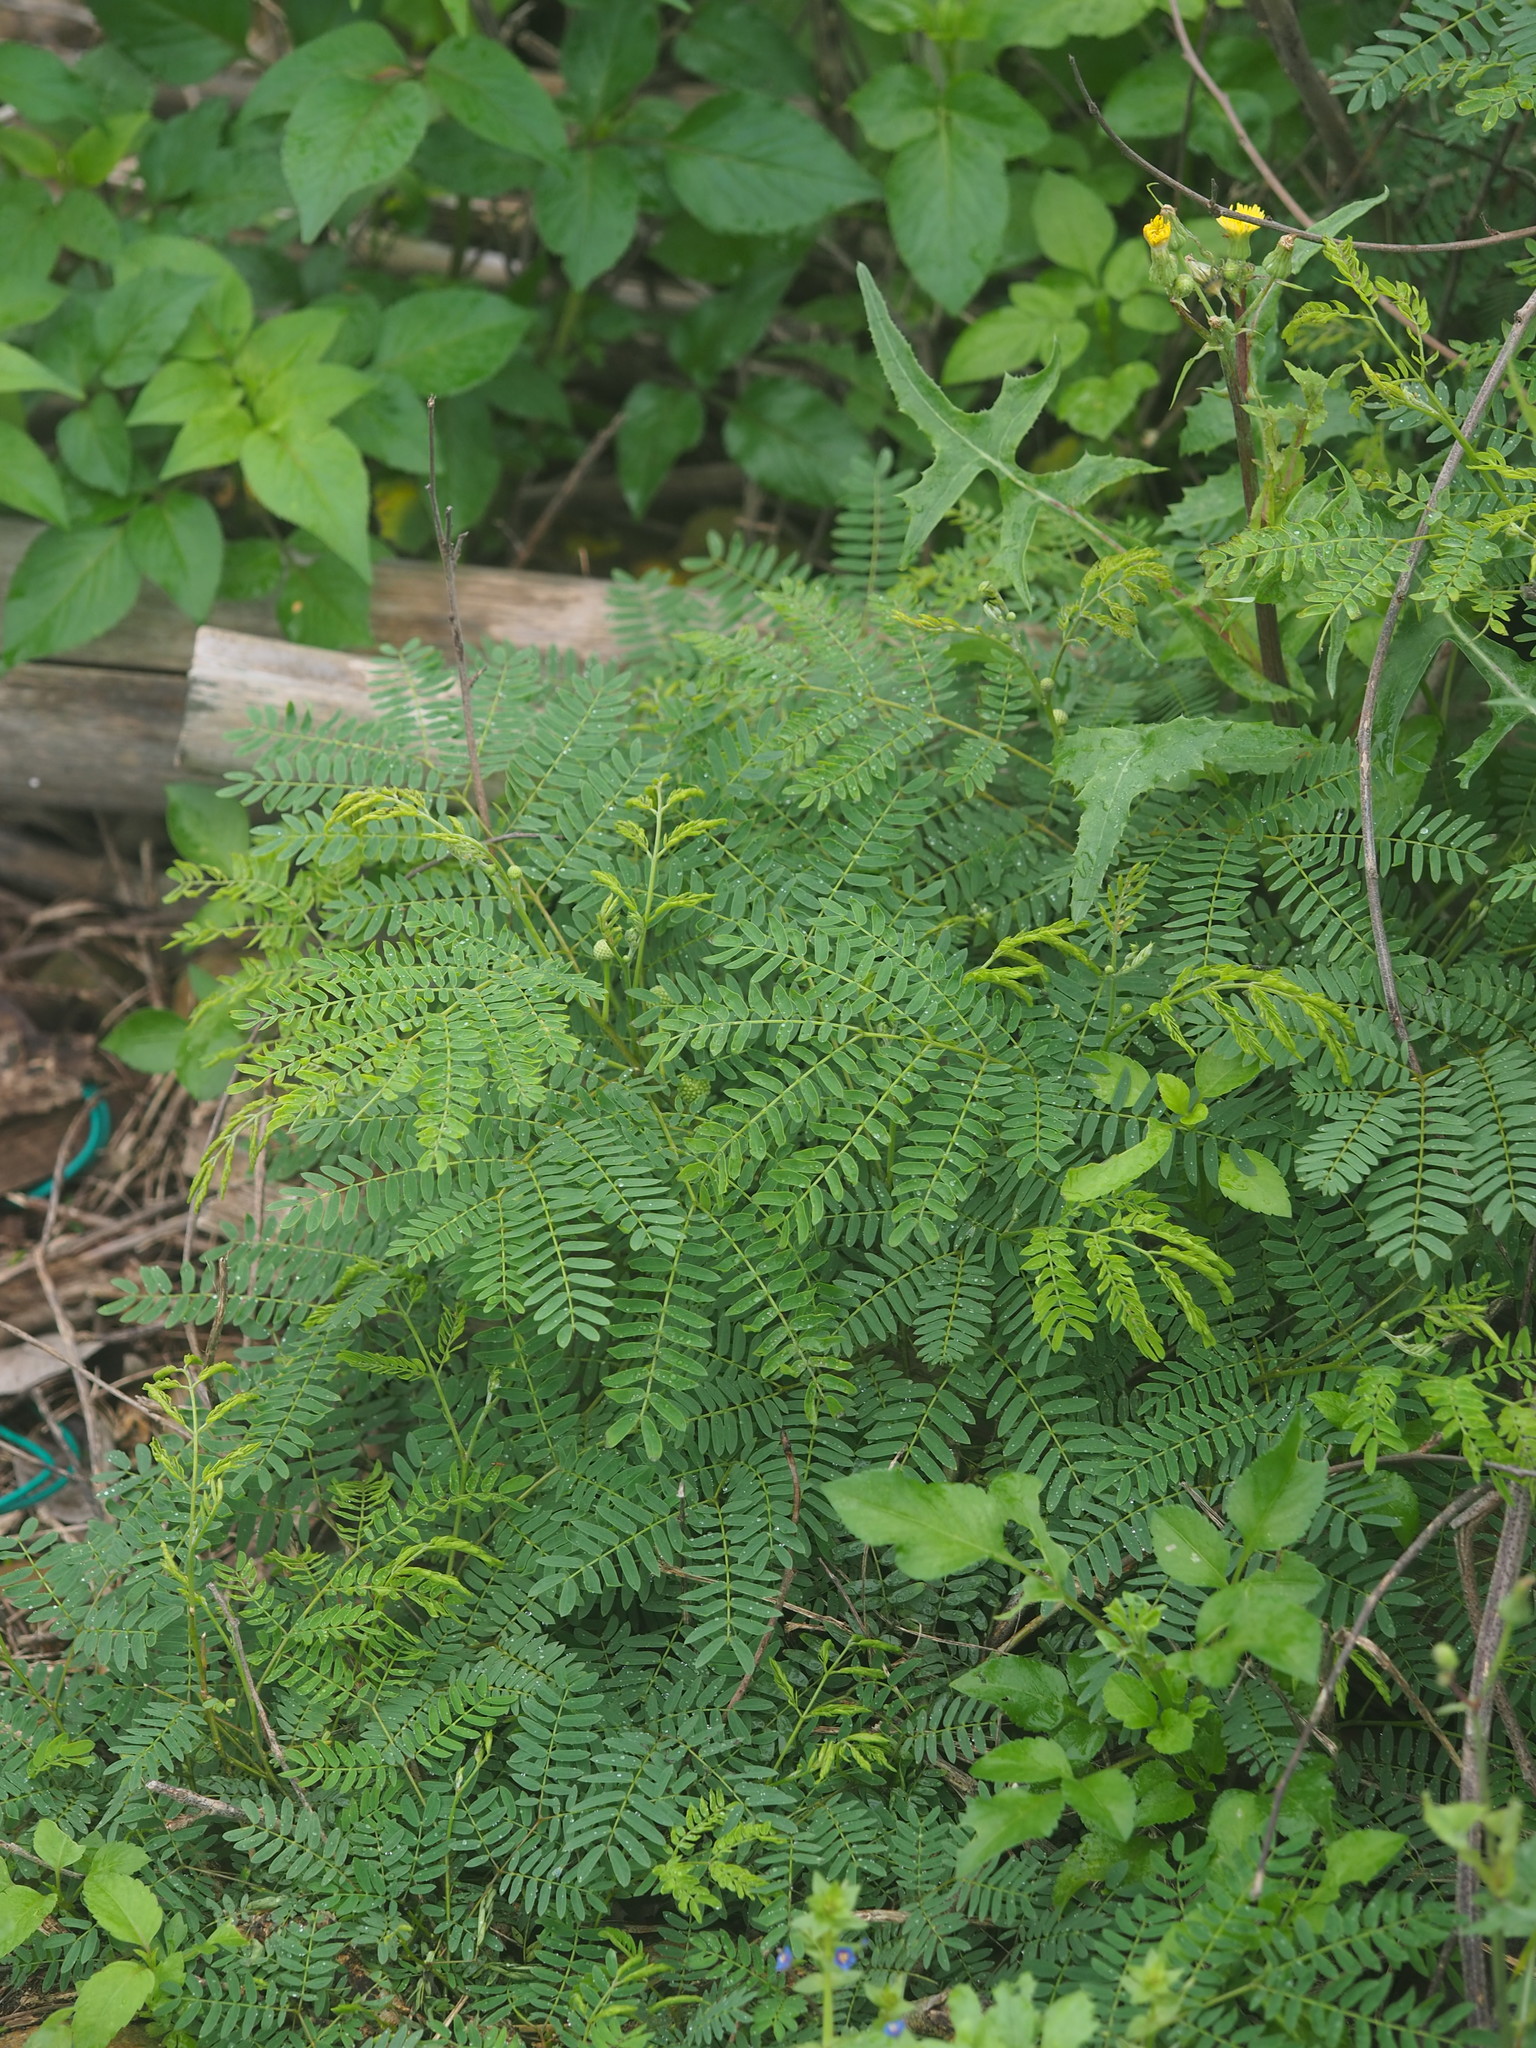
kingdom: Plantae
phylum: Tracheophyta
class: Magnoliopsida
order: Fabales
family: Fabaceae
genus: Leucaena
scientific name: Leucaena leucocephala
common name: White leadtree
